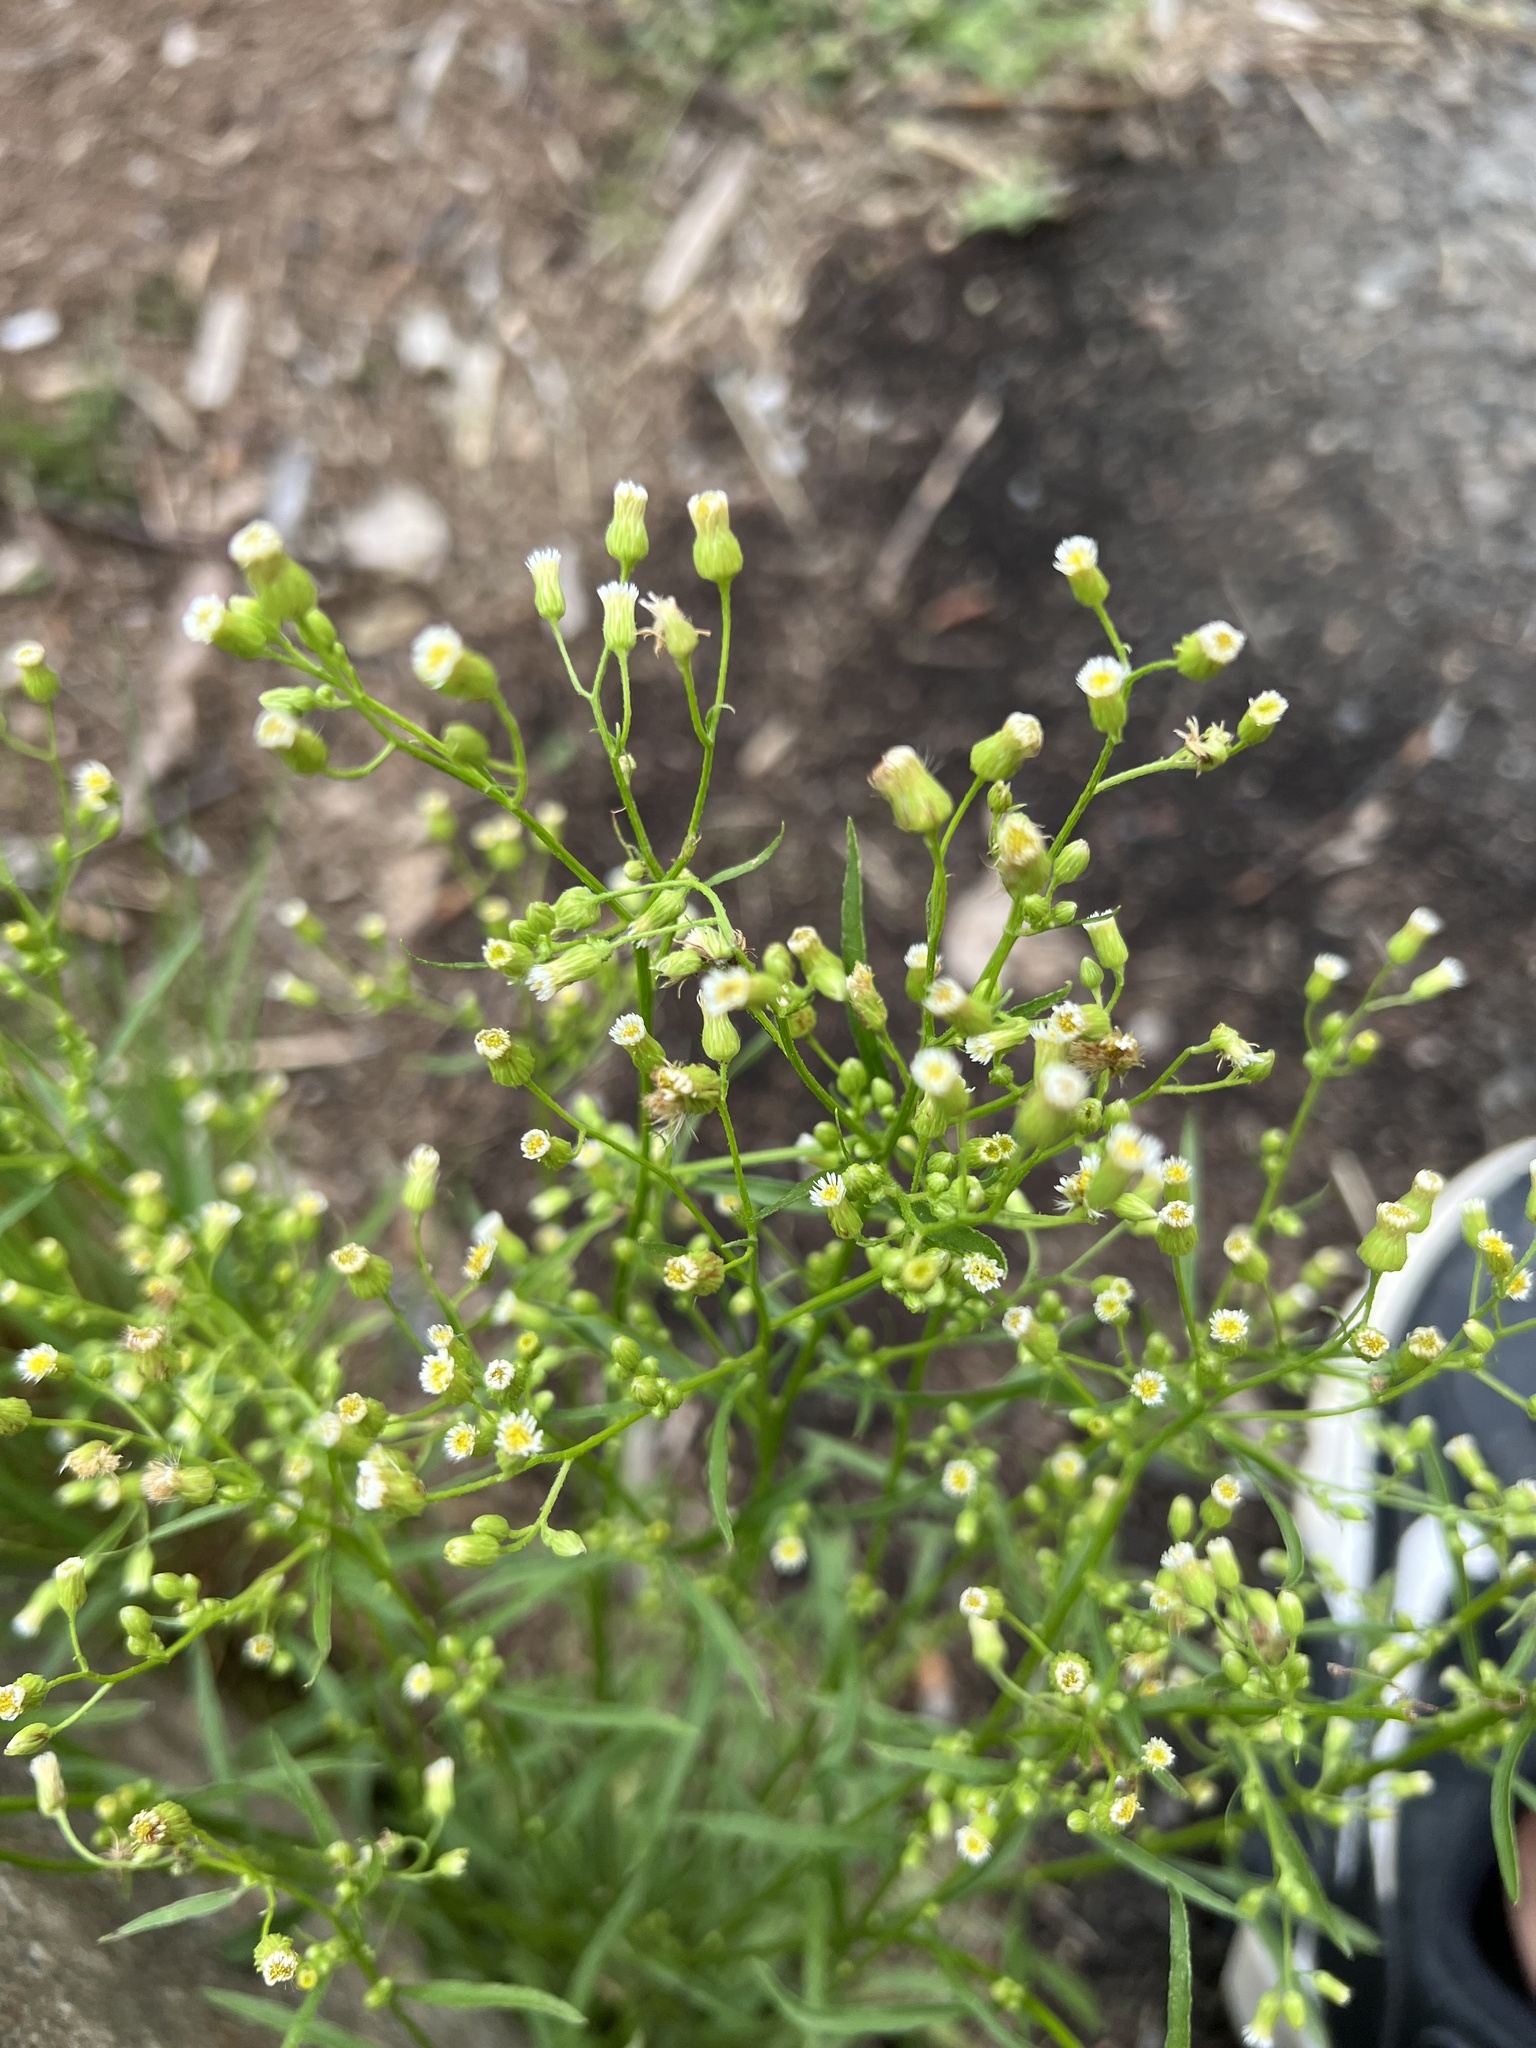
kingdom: Plantae
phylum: Tracheophyta
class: Magnoliopsida
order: Asterales
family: Asteraceae
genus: Erigeron
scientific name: Erigeron canadensis
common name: Canadian fleabane
